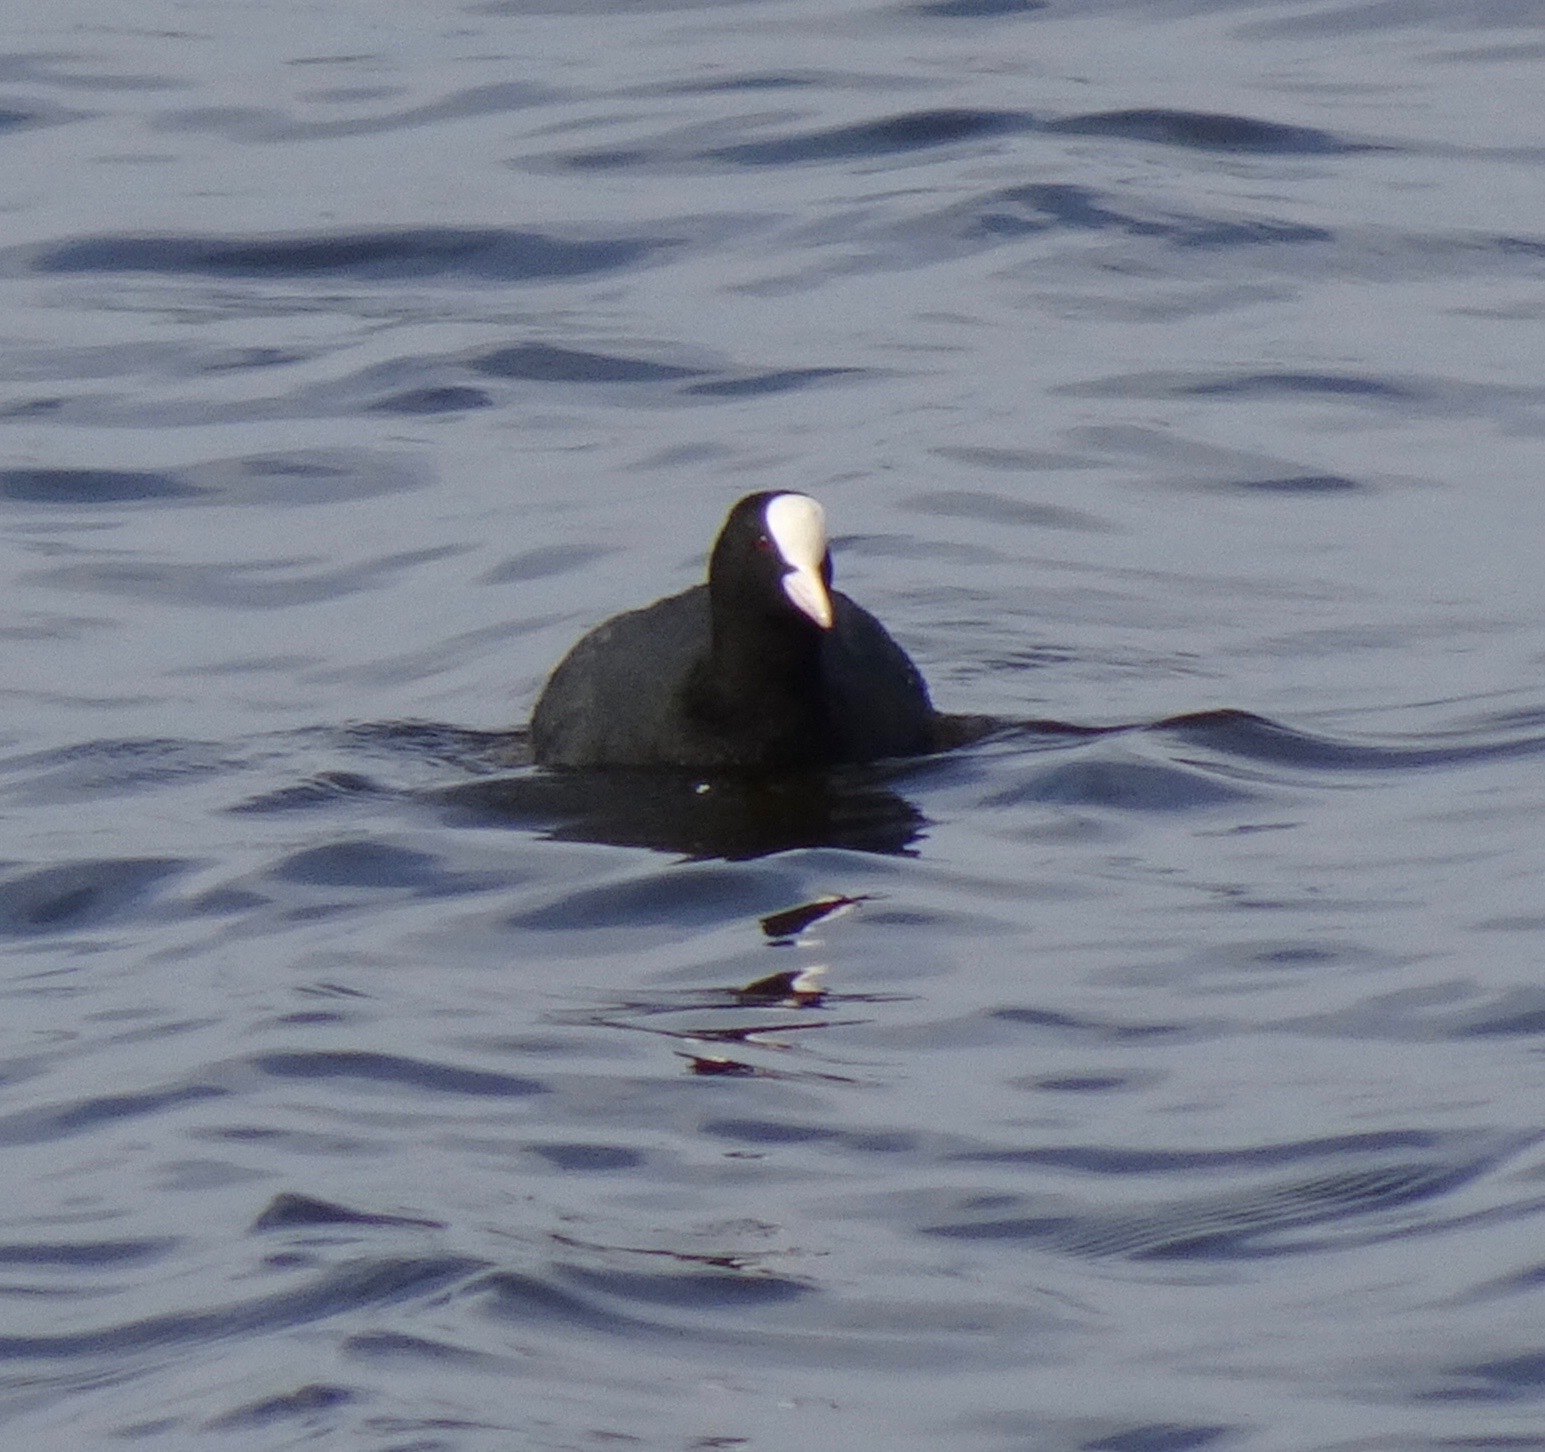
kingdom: Animalia
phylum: Chordata
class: Aves
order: Gruiformes
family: Rallidae
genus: Fulica
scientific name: Fulica atra
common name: Eurasian coot
